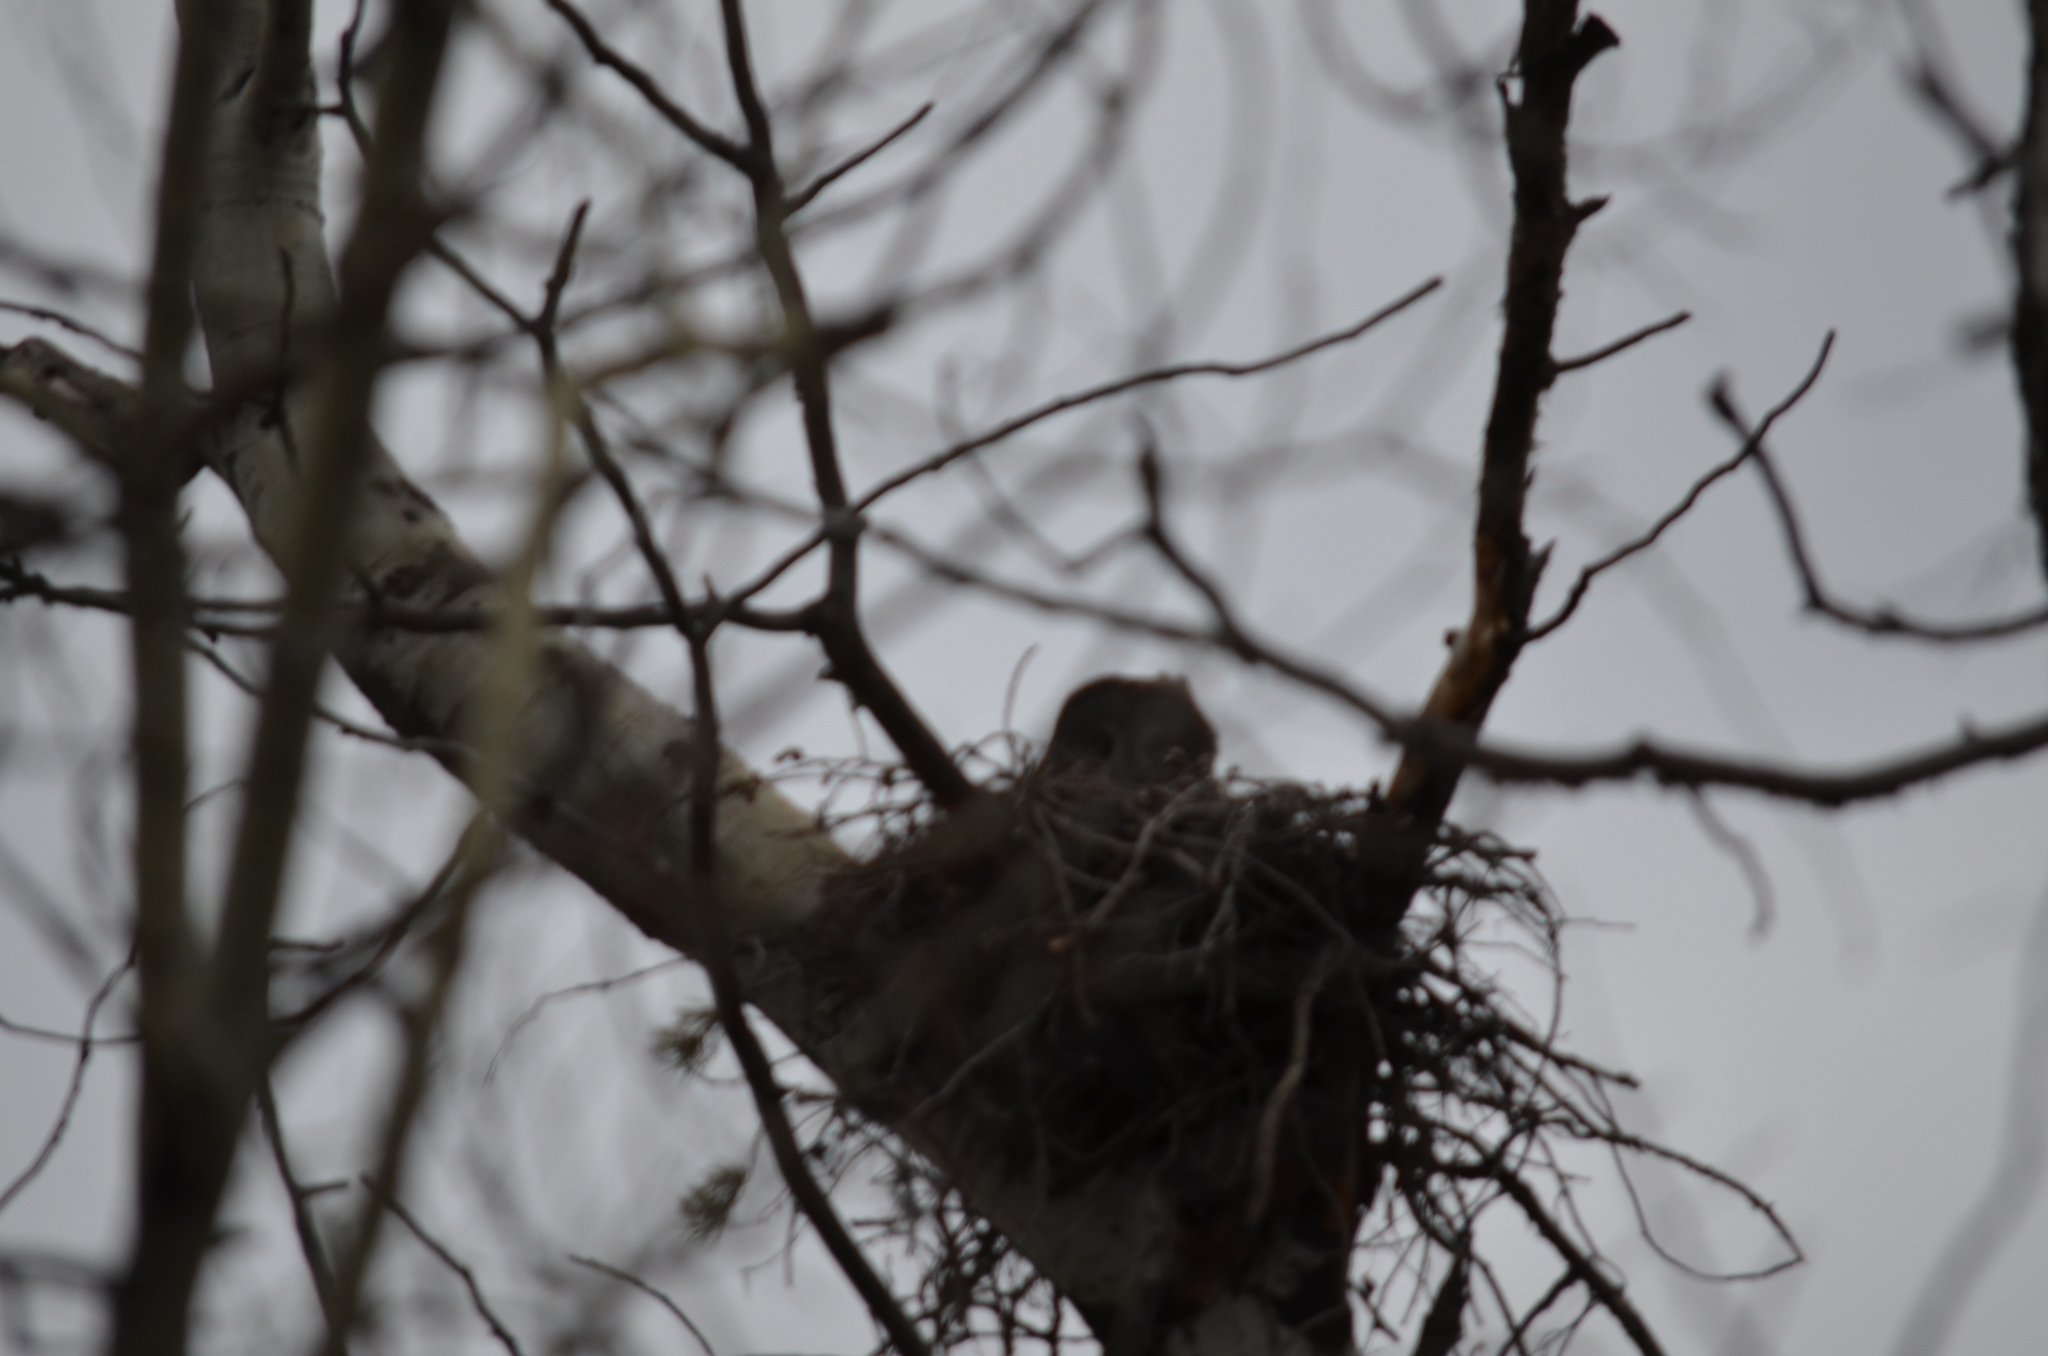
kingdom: Animalia
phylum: Chordata
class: Aves
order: Strigiformes
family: Strigidae
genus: Strix
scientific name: Strix nebulosa
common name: Great grey owl
